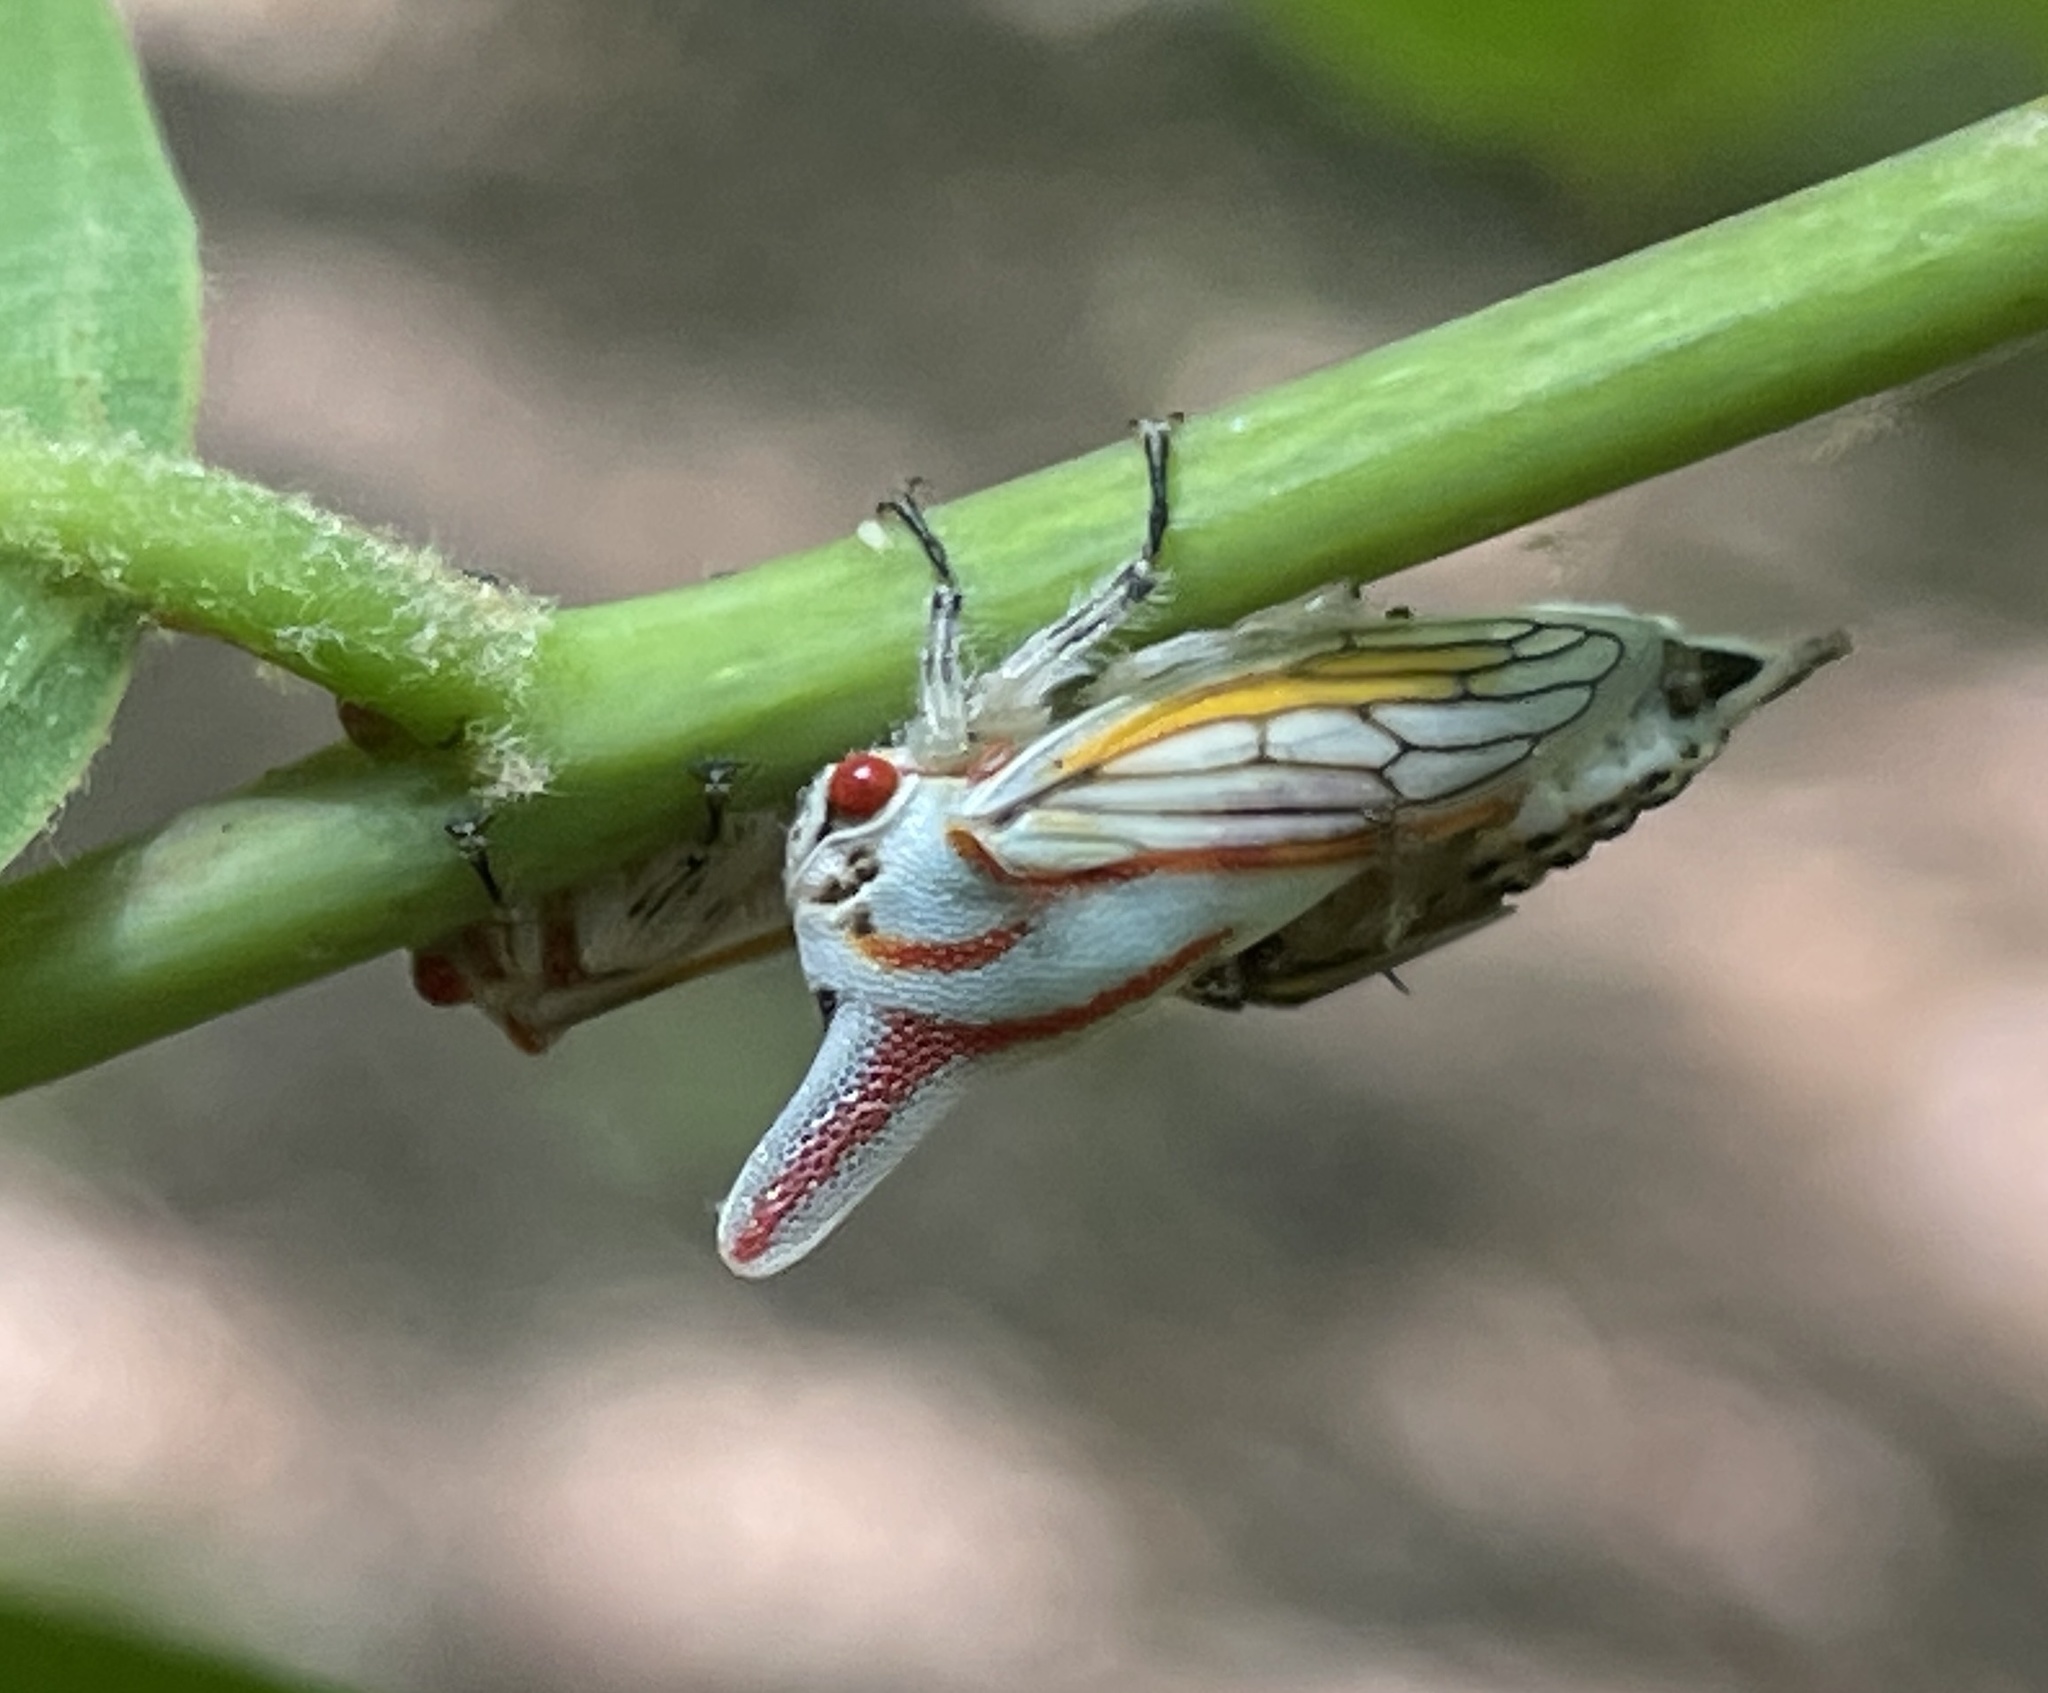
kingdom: Animalia
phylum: Arthropoda
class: Insecta
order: Hemiptera
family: Membracidae
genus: Platycotis
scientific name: Platycotis vittatus
